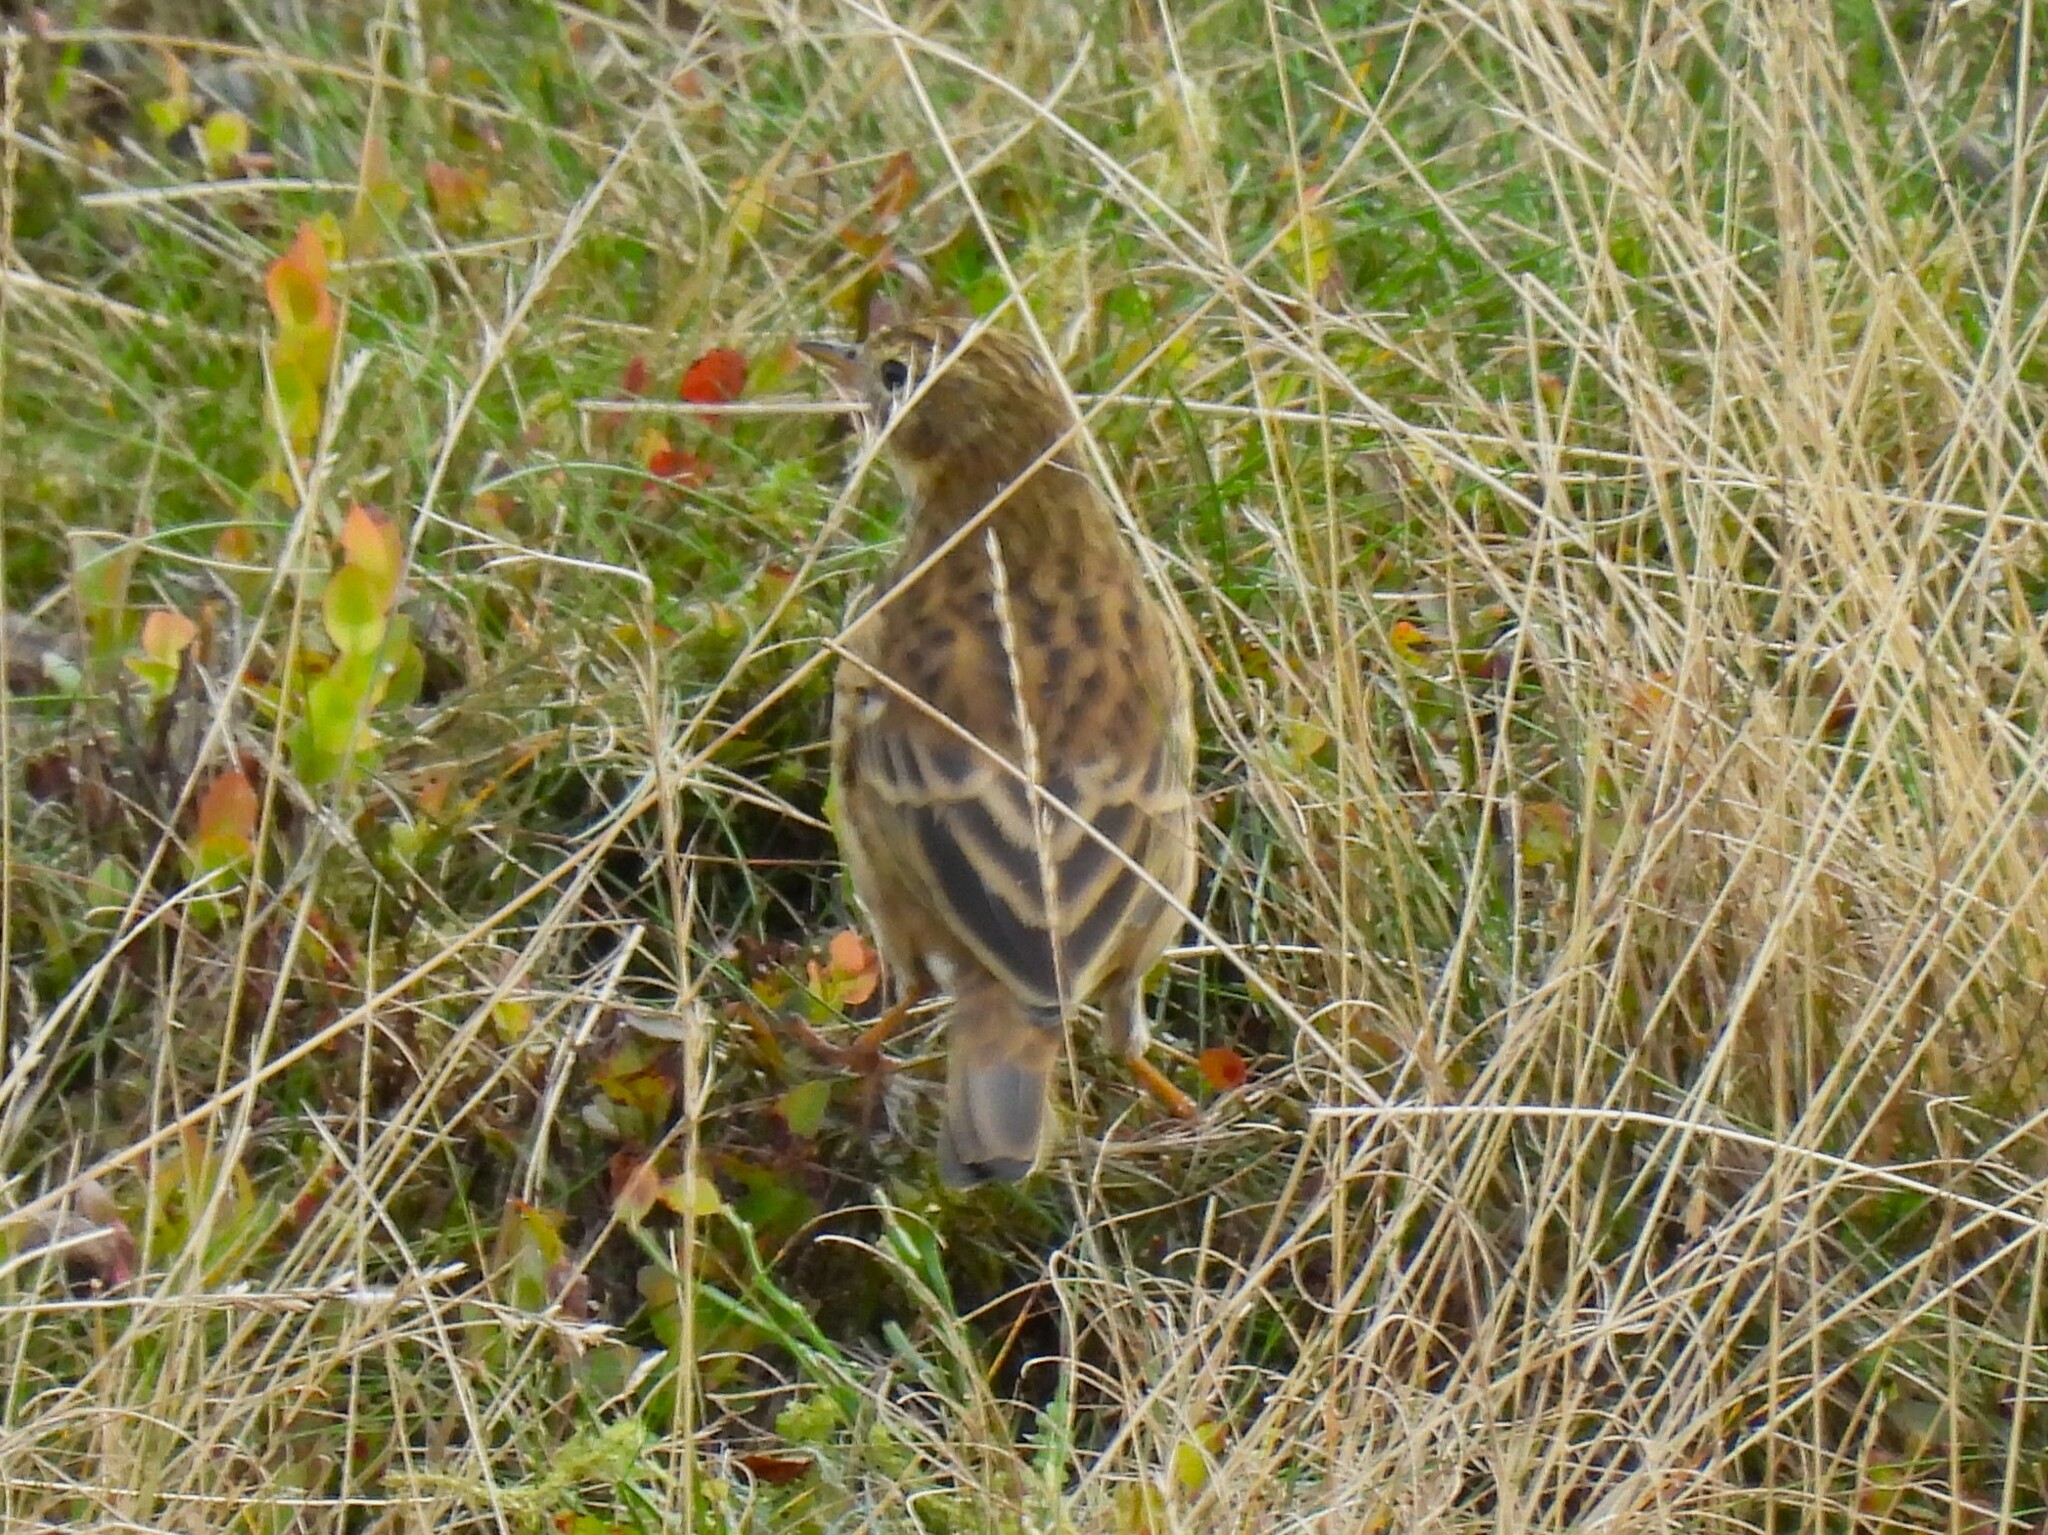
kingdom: Animalia
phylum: Chordata
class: Aves
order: Passeriformes
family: Motacillidae
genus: Anthus
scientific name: Anthus pratensis
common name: Meadow pipit
